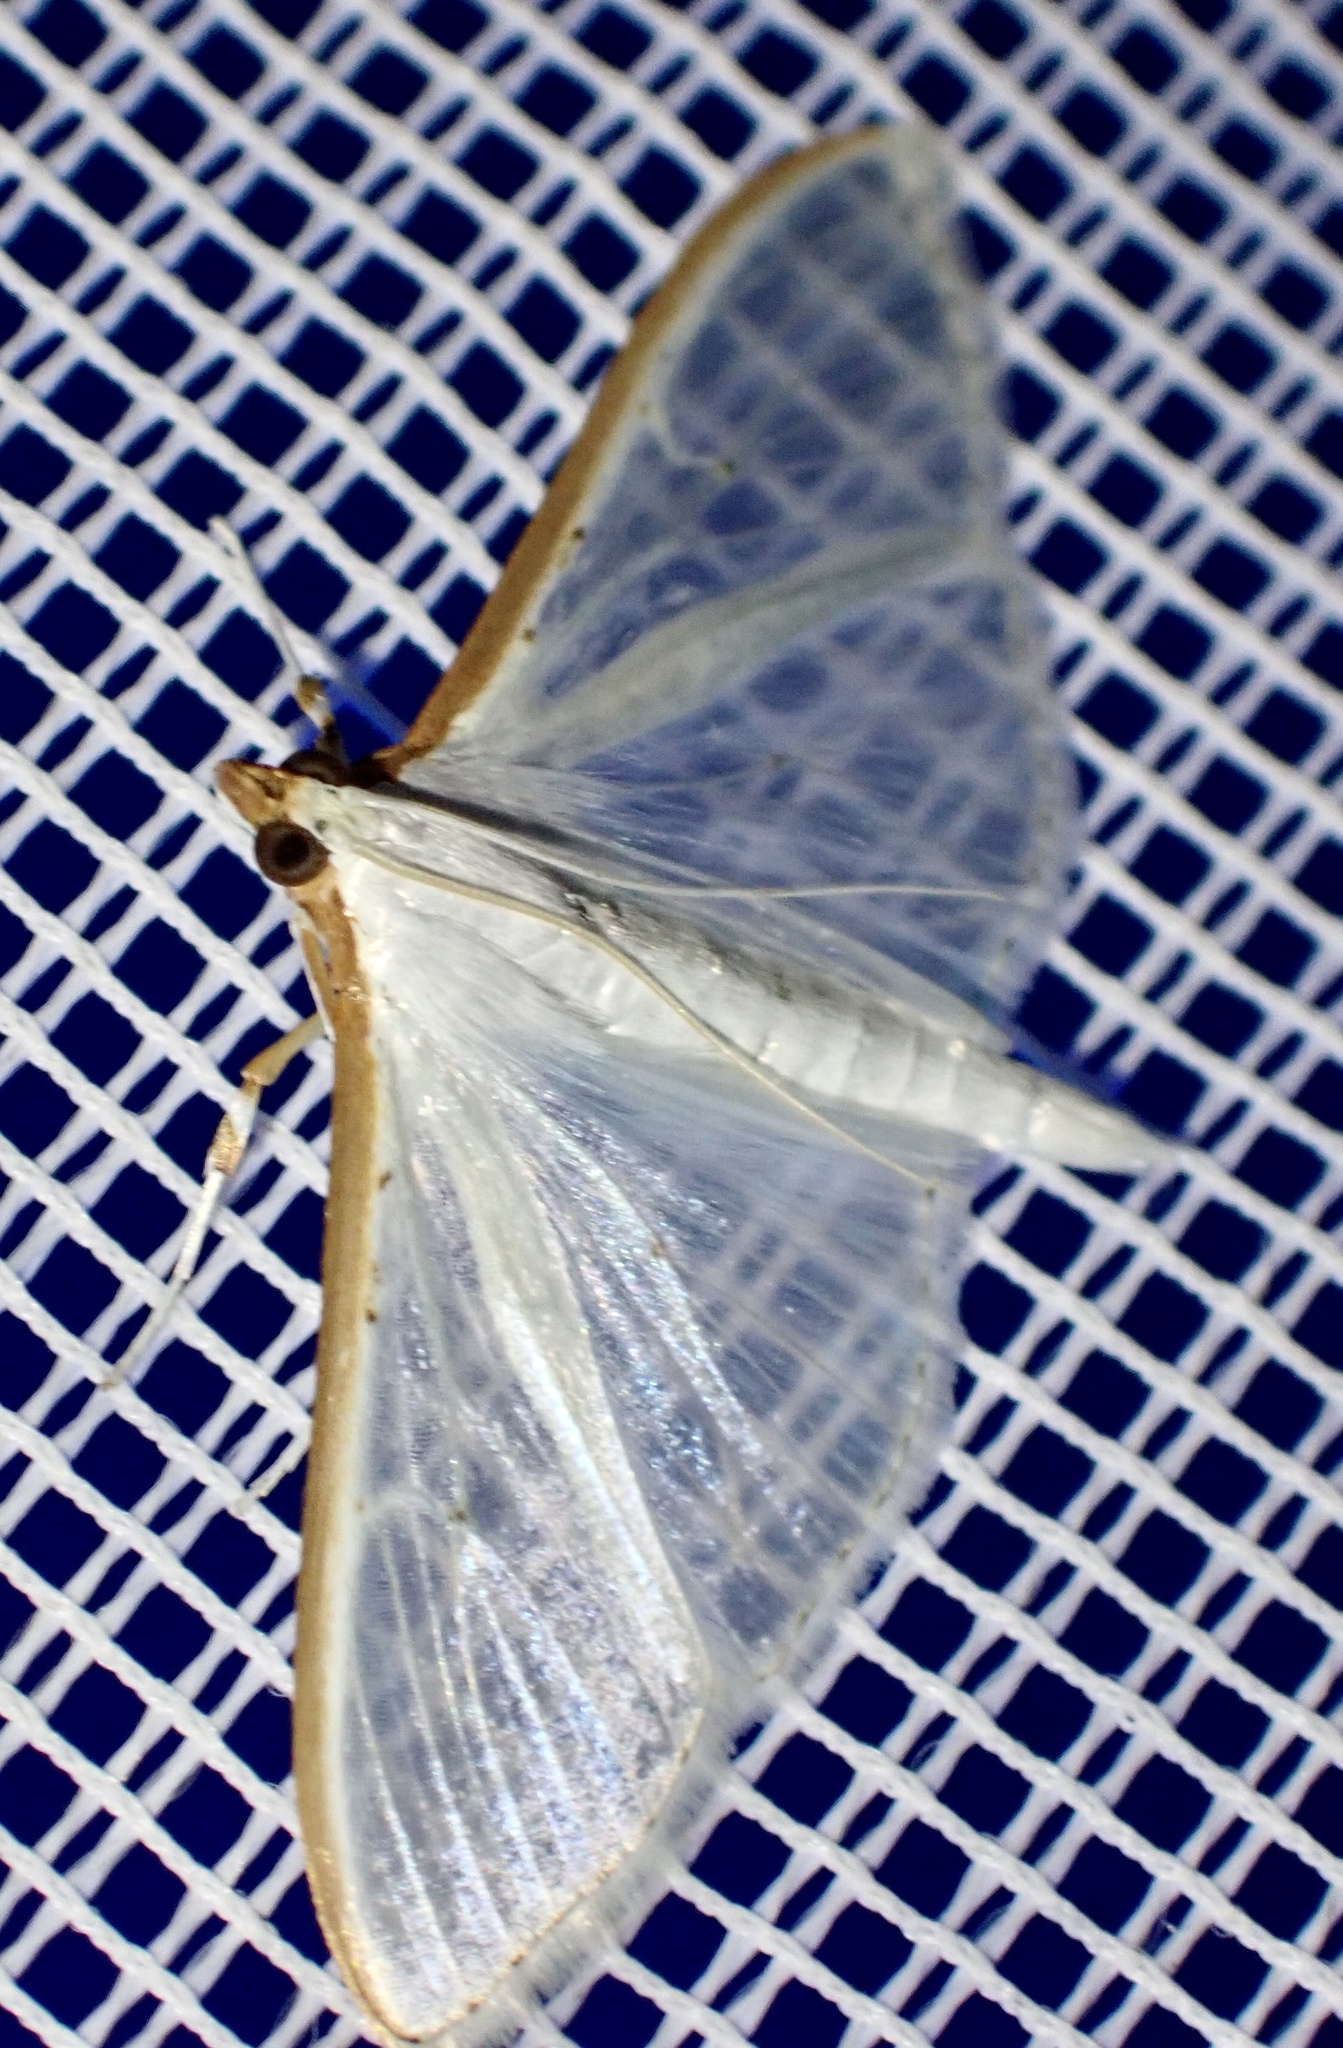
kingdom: Animalia
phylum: Arthropoda
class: Insecta
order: Lepidoptera
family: Crambidae
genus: Palpita
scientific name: Palpita vitrealis
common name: Olive-tree pearl
